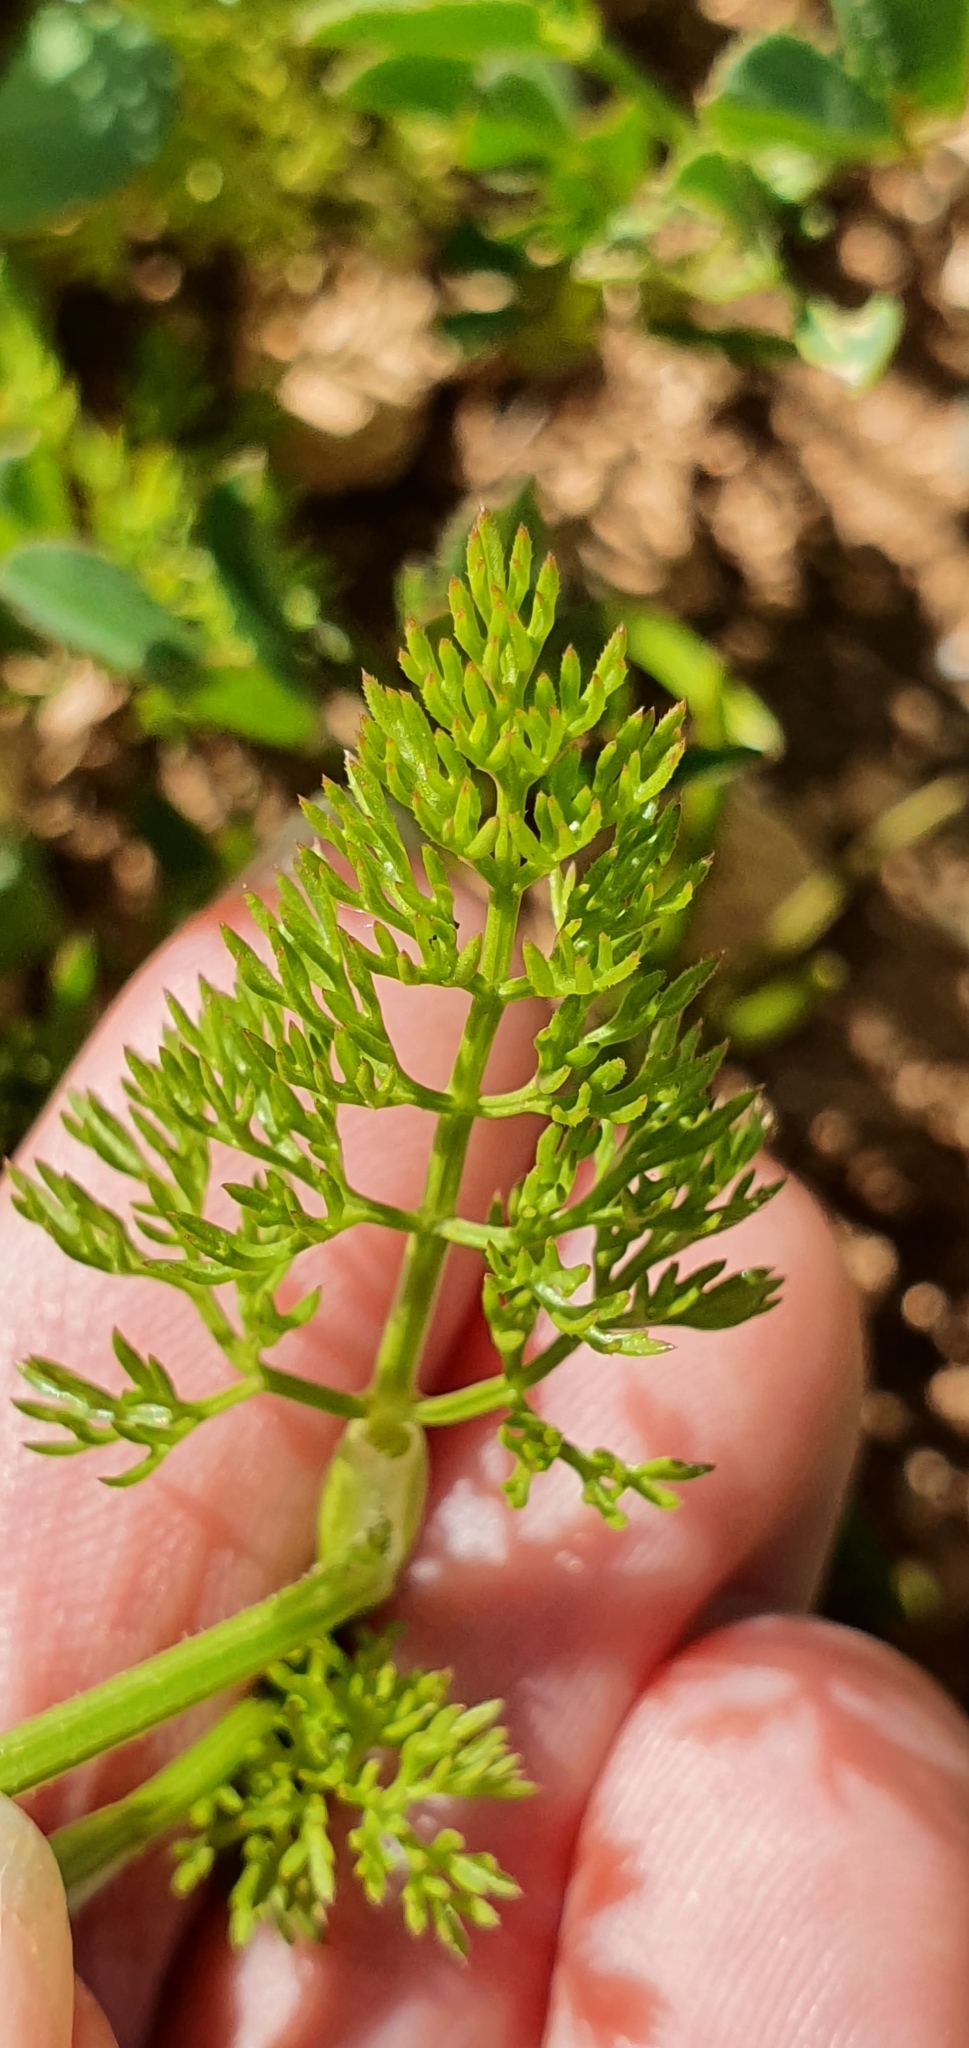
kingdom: Plantae
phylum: Tracheophyta
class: Magnoliopsida
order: Apiales
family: Apiaceae
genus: Scandix
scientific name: Scandix pecten-veneris
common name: Shepherd's-needle
